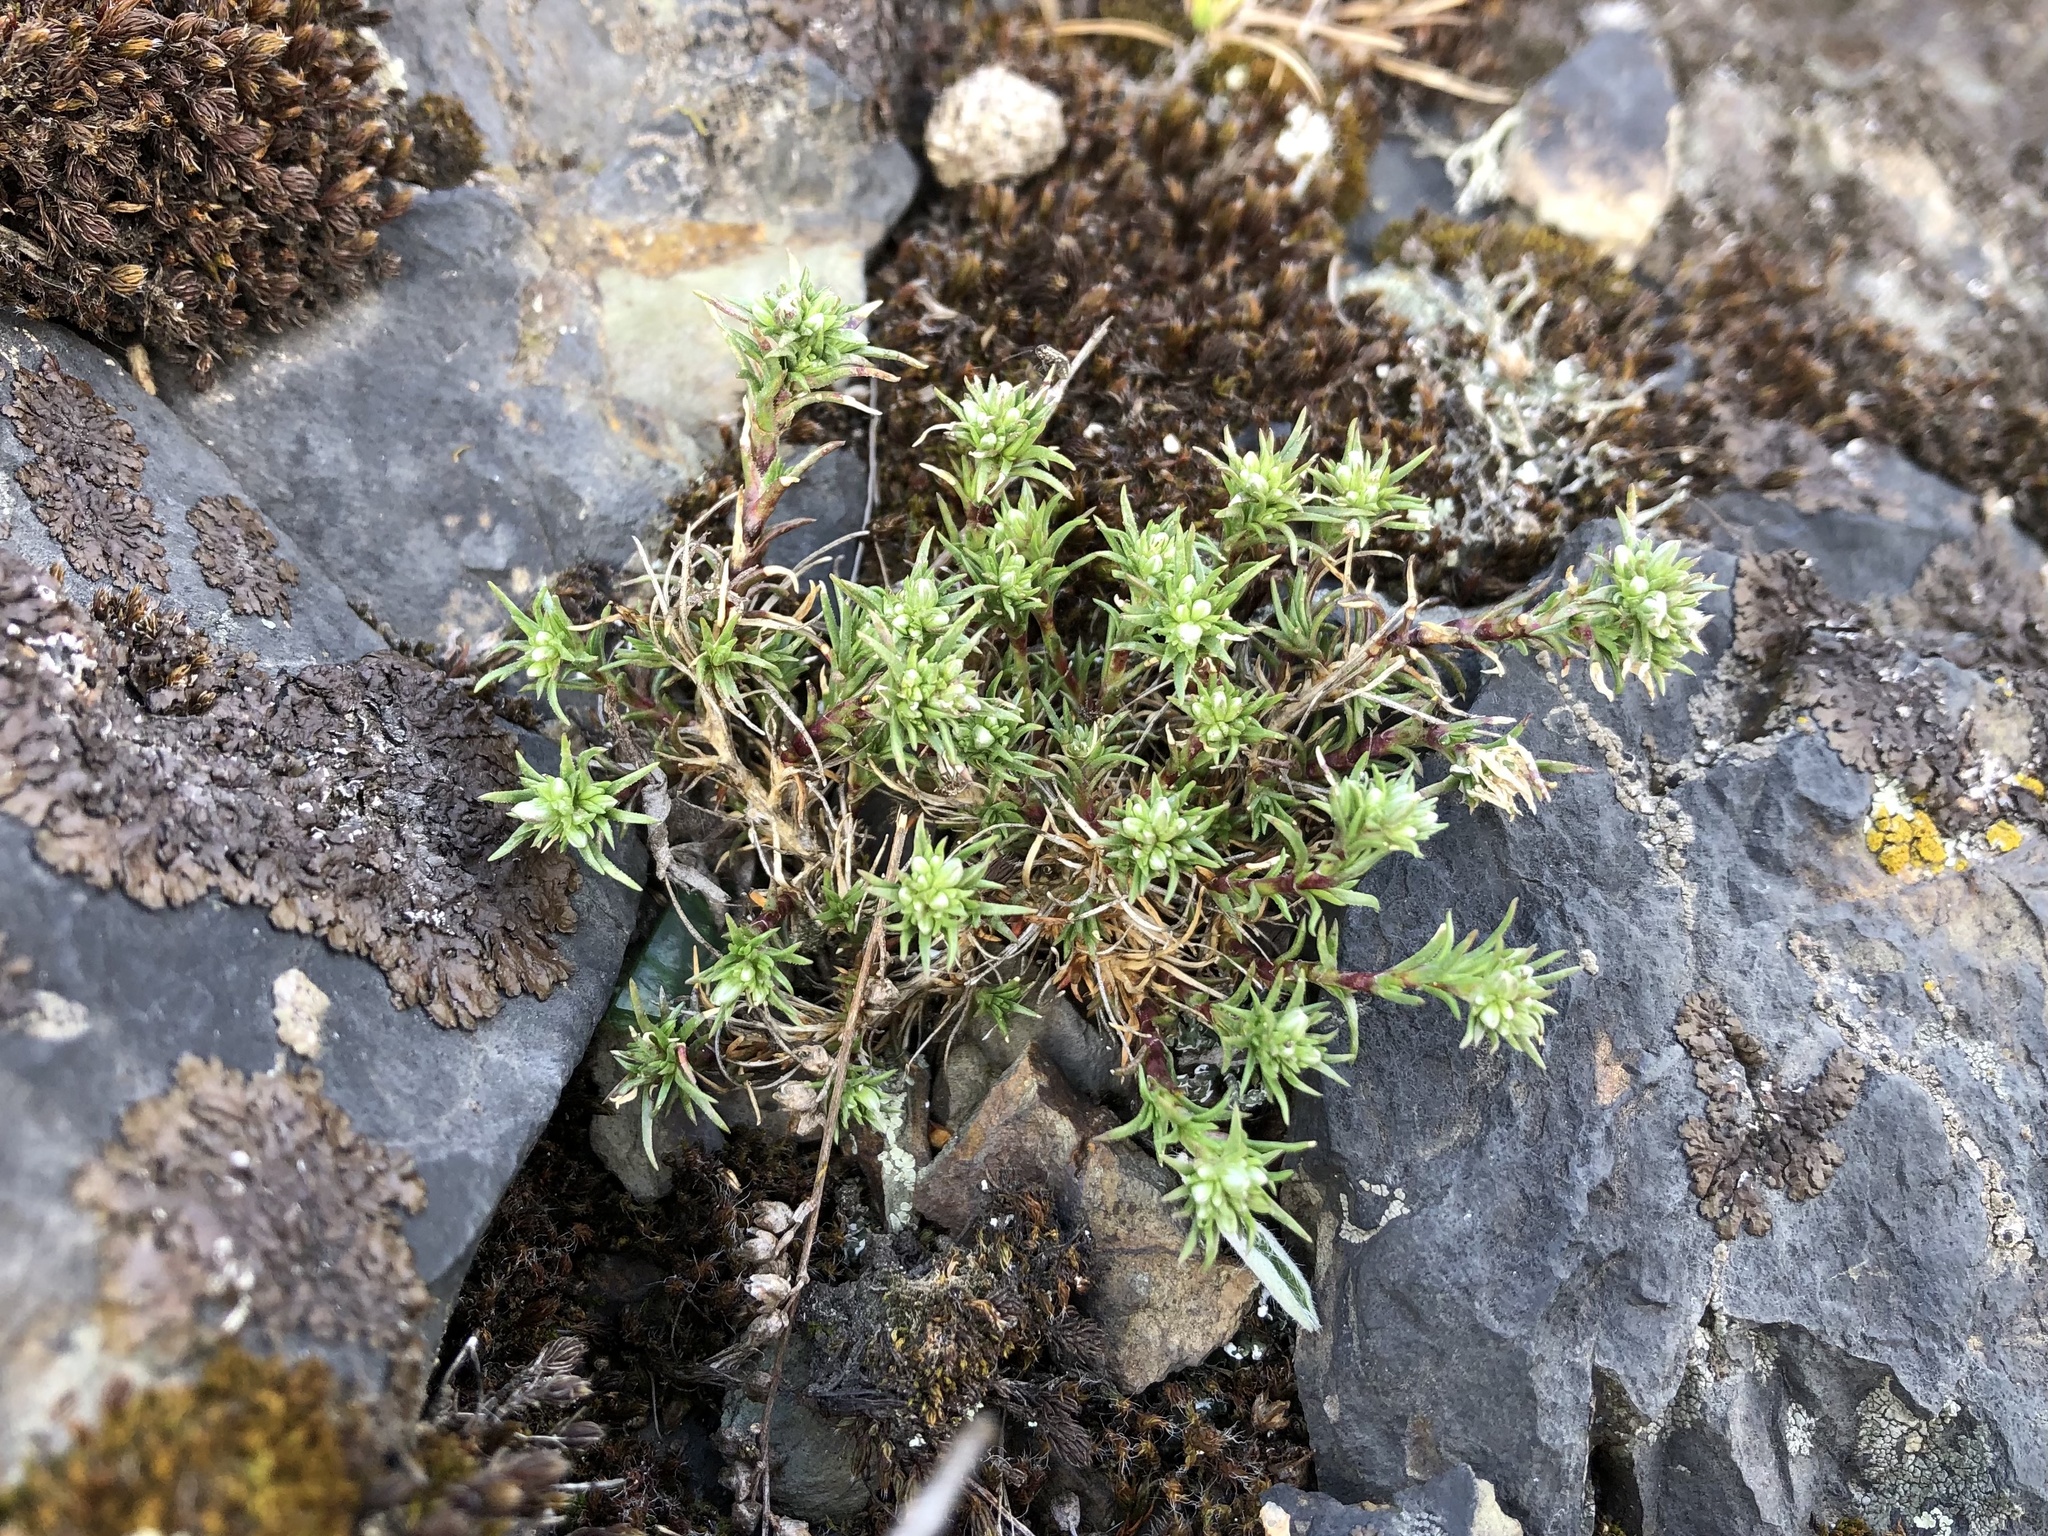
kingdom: Plantae
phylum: Tracheophyta
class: Magnoliopsida
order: Caryophyllales
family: Caryophyllaceae
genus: Scleranthus
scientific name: Scleranthus perennis
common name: Perennial knawel
